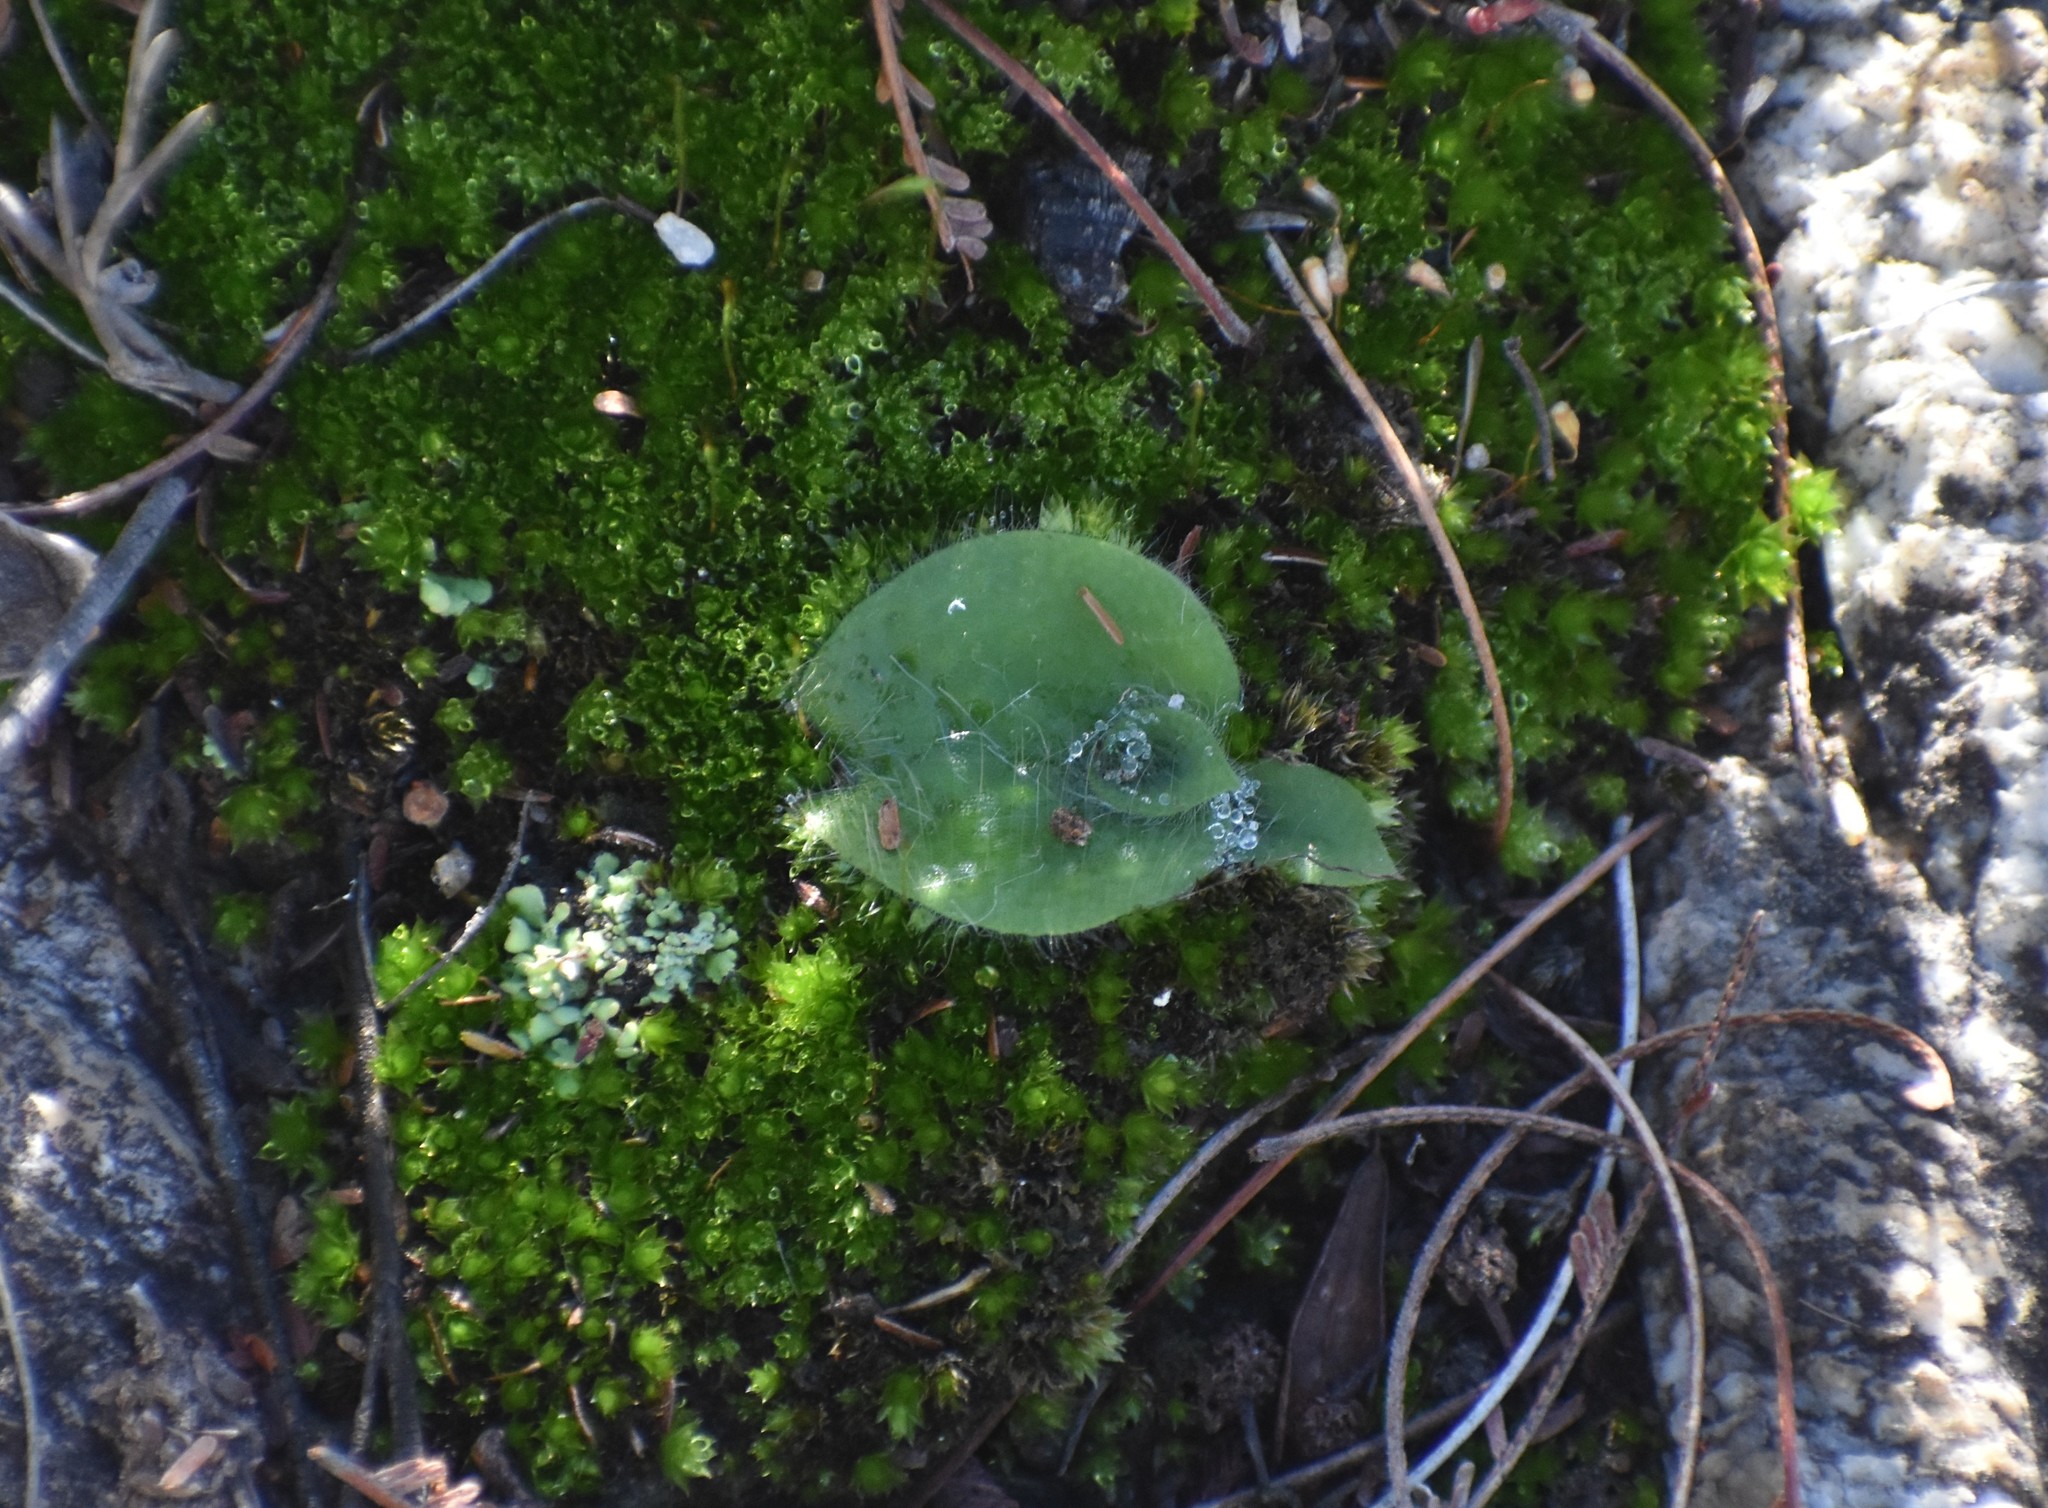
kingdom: Plantae
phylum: Tracheophyta
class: Liliopsida
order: Asparagales
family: Orchidaceae
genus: Holothrix
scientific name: Holothrix villosa
